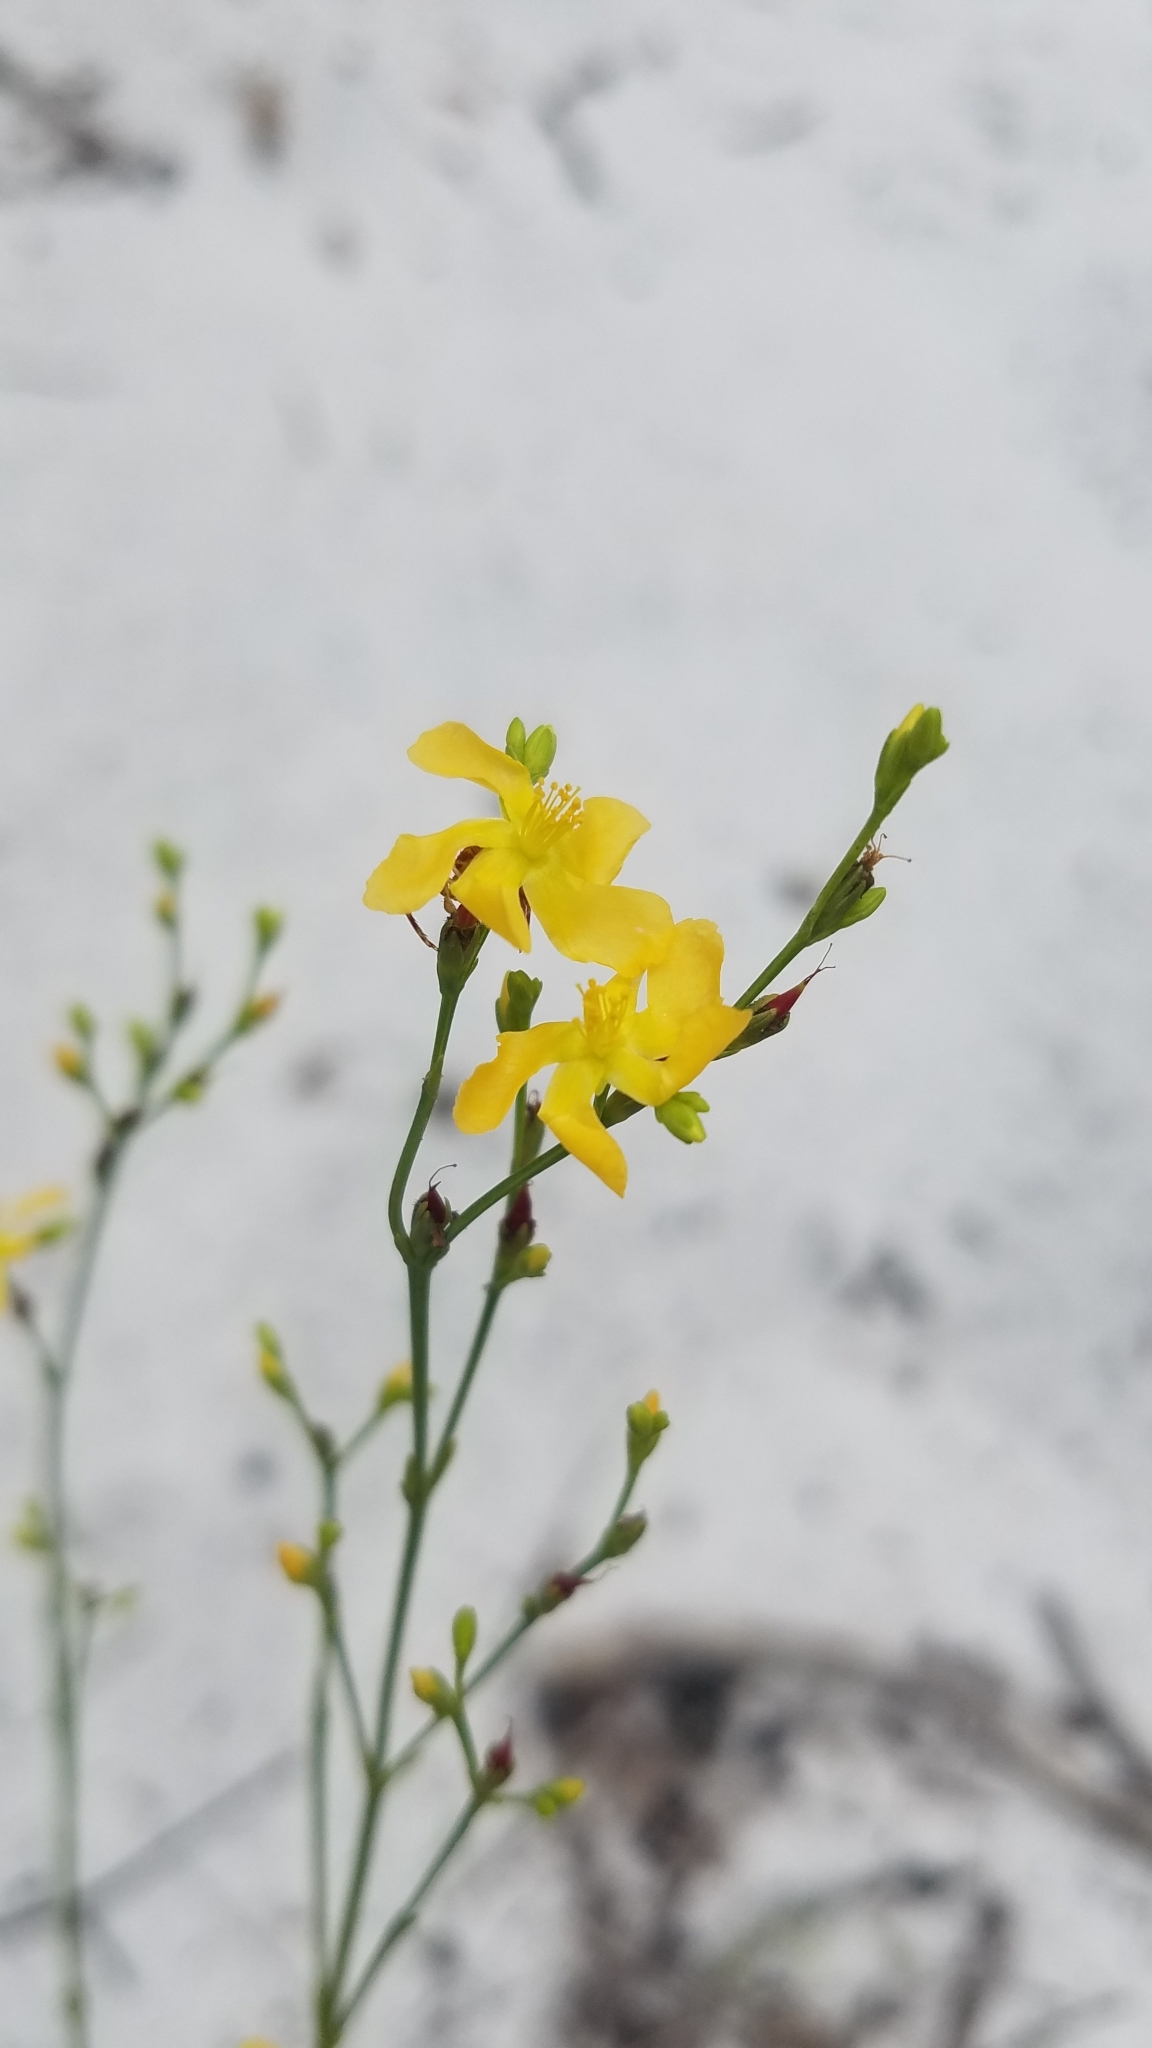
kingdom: Plantae
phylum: Tracheophyta
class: Magnoliopsida
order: Malpighiales
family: Hypericaceae
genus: Hypericum
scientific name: Hypericum cumulicola
